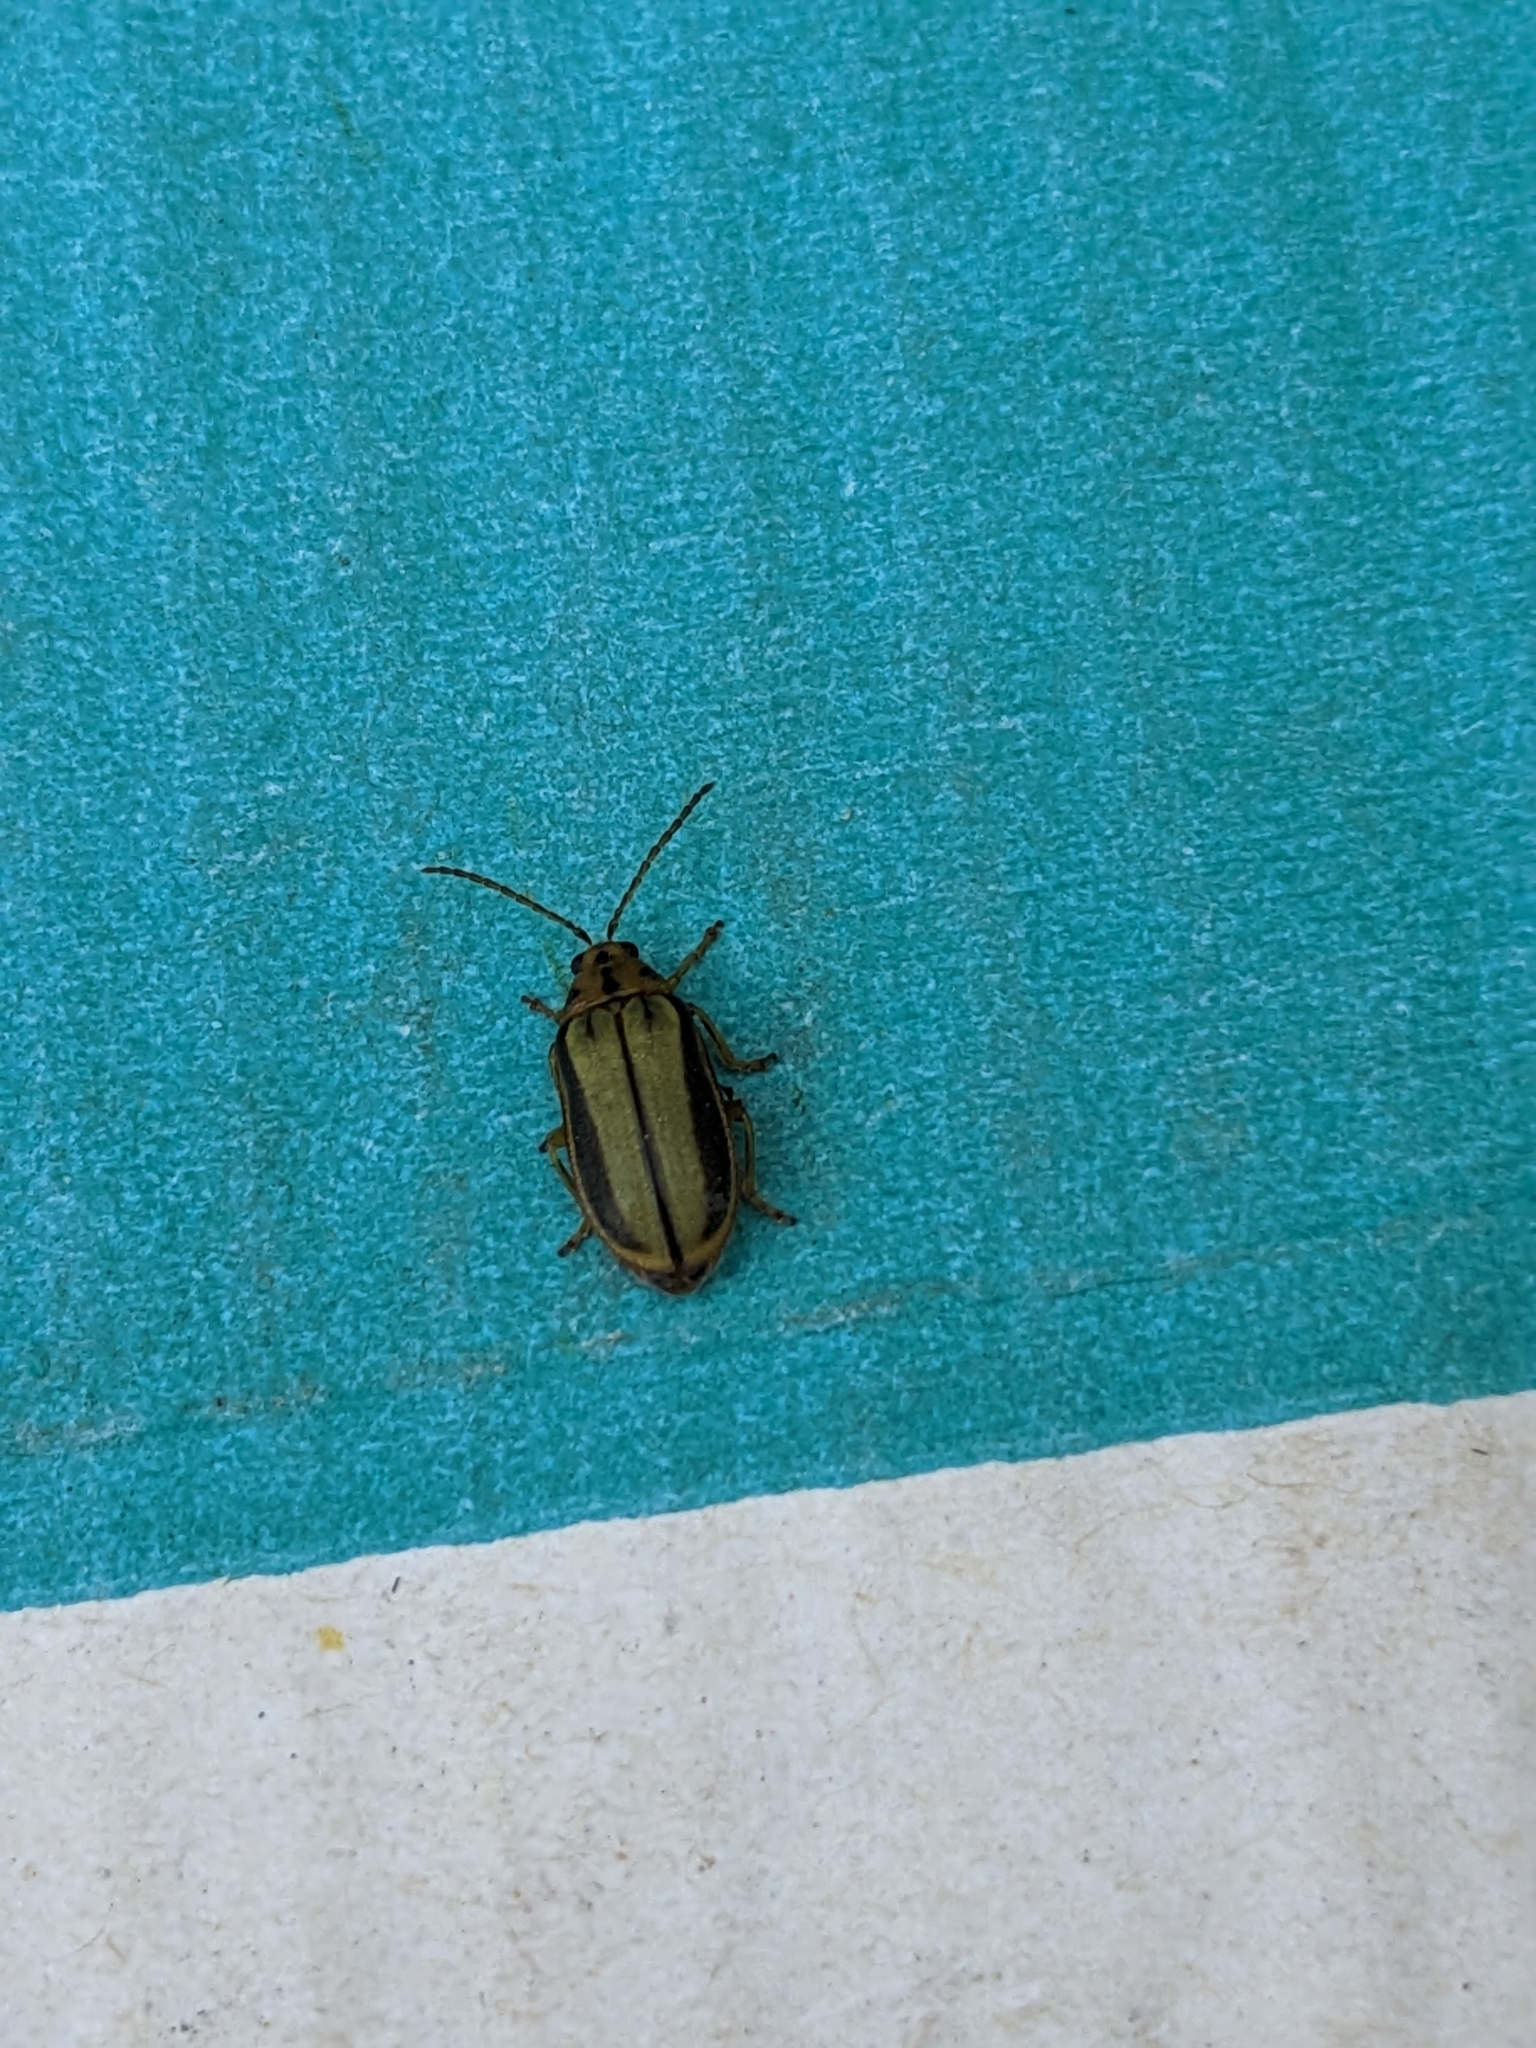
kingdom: Animalia
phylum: Arthropoda
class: Insecta
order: Coleoptera
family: Chrysomelidae
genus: Xanthogaleruca
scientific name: Xanthogaleruca luteola
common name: Elm leaf beetle
